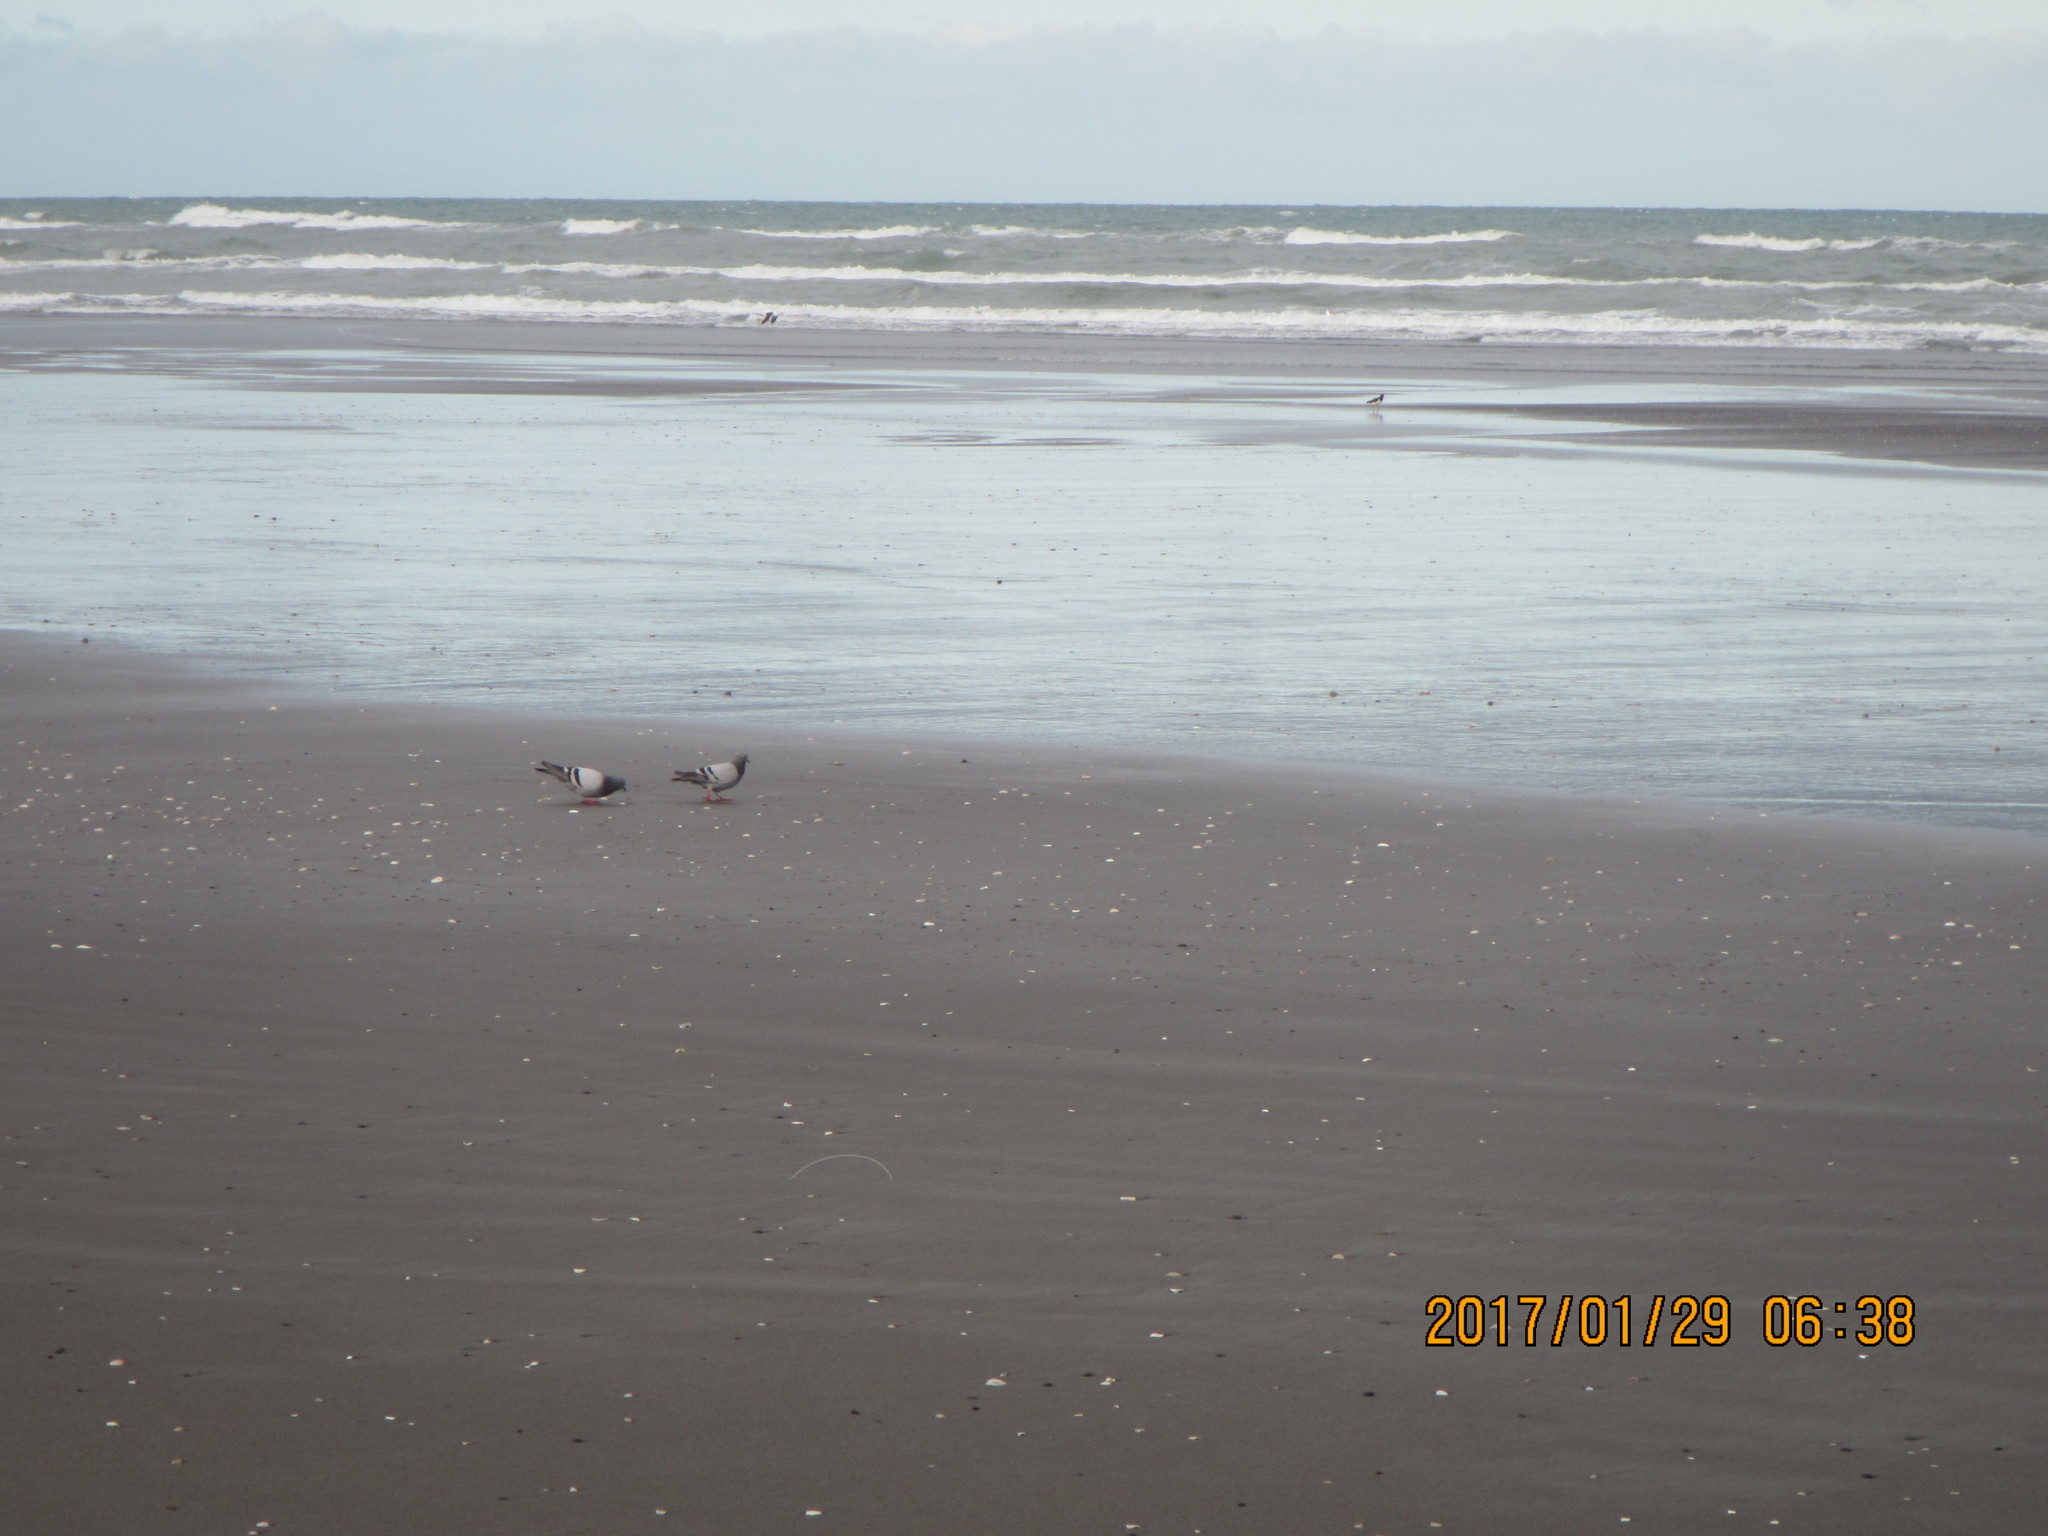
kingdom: Animalia
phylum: Chordata
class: Aves
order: Columbiformes
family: Columbidae
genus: Columba
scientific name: Columba livia
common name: Rock pigeon
